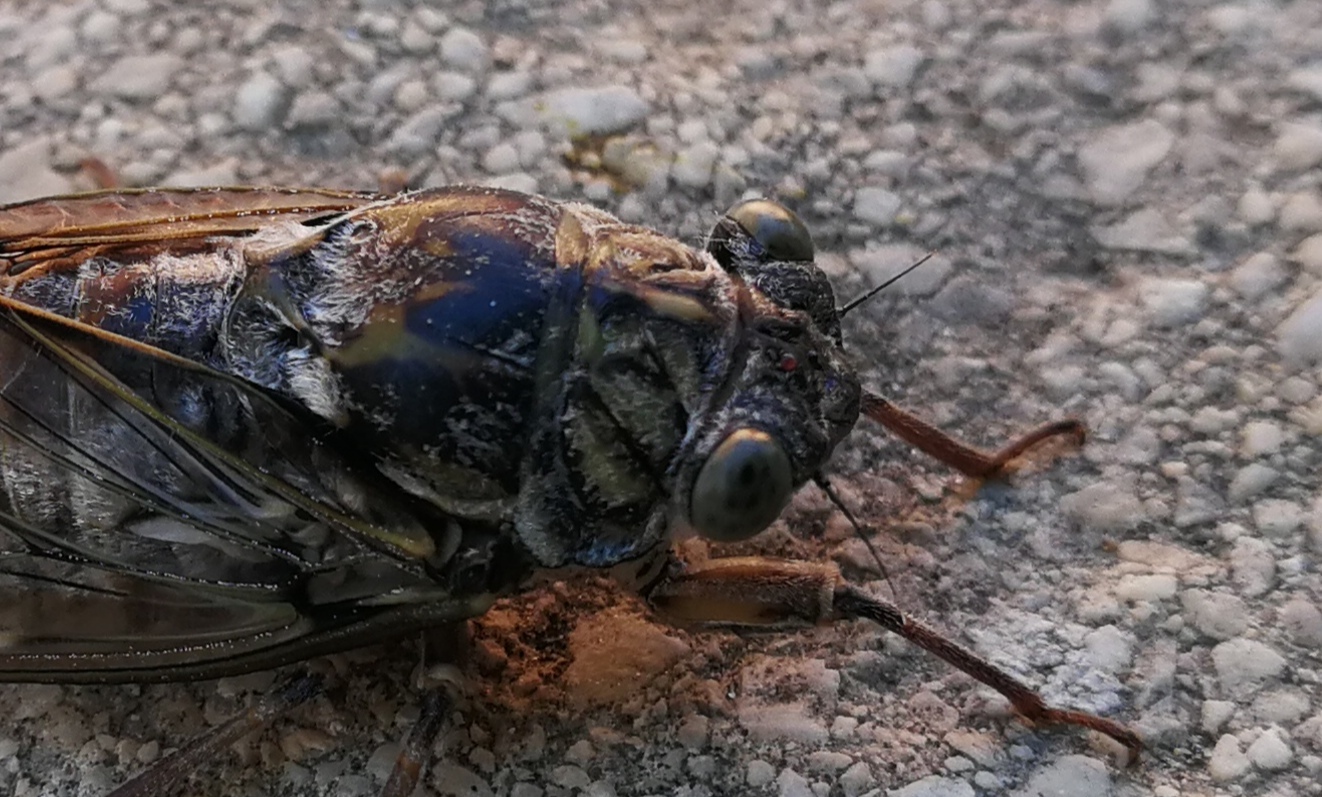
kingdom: Animalia
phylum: Arthropoda
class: Insecta
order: Hemiptera
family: Cicadidae
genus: Cicada
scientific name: Cicada orni
